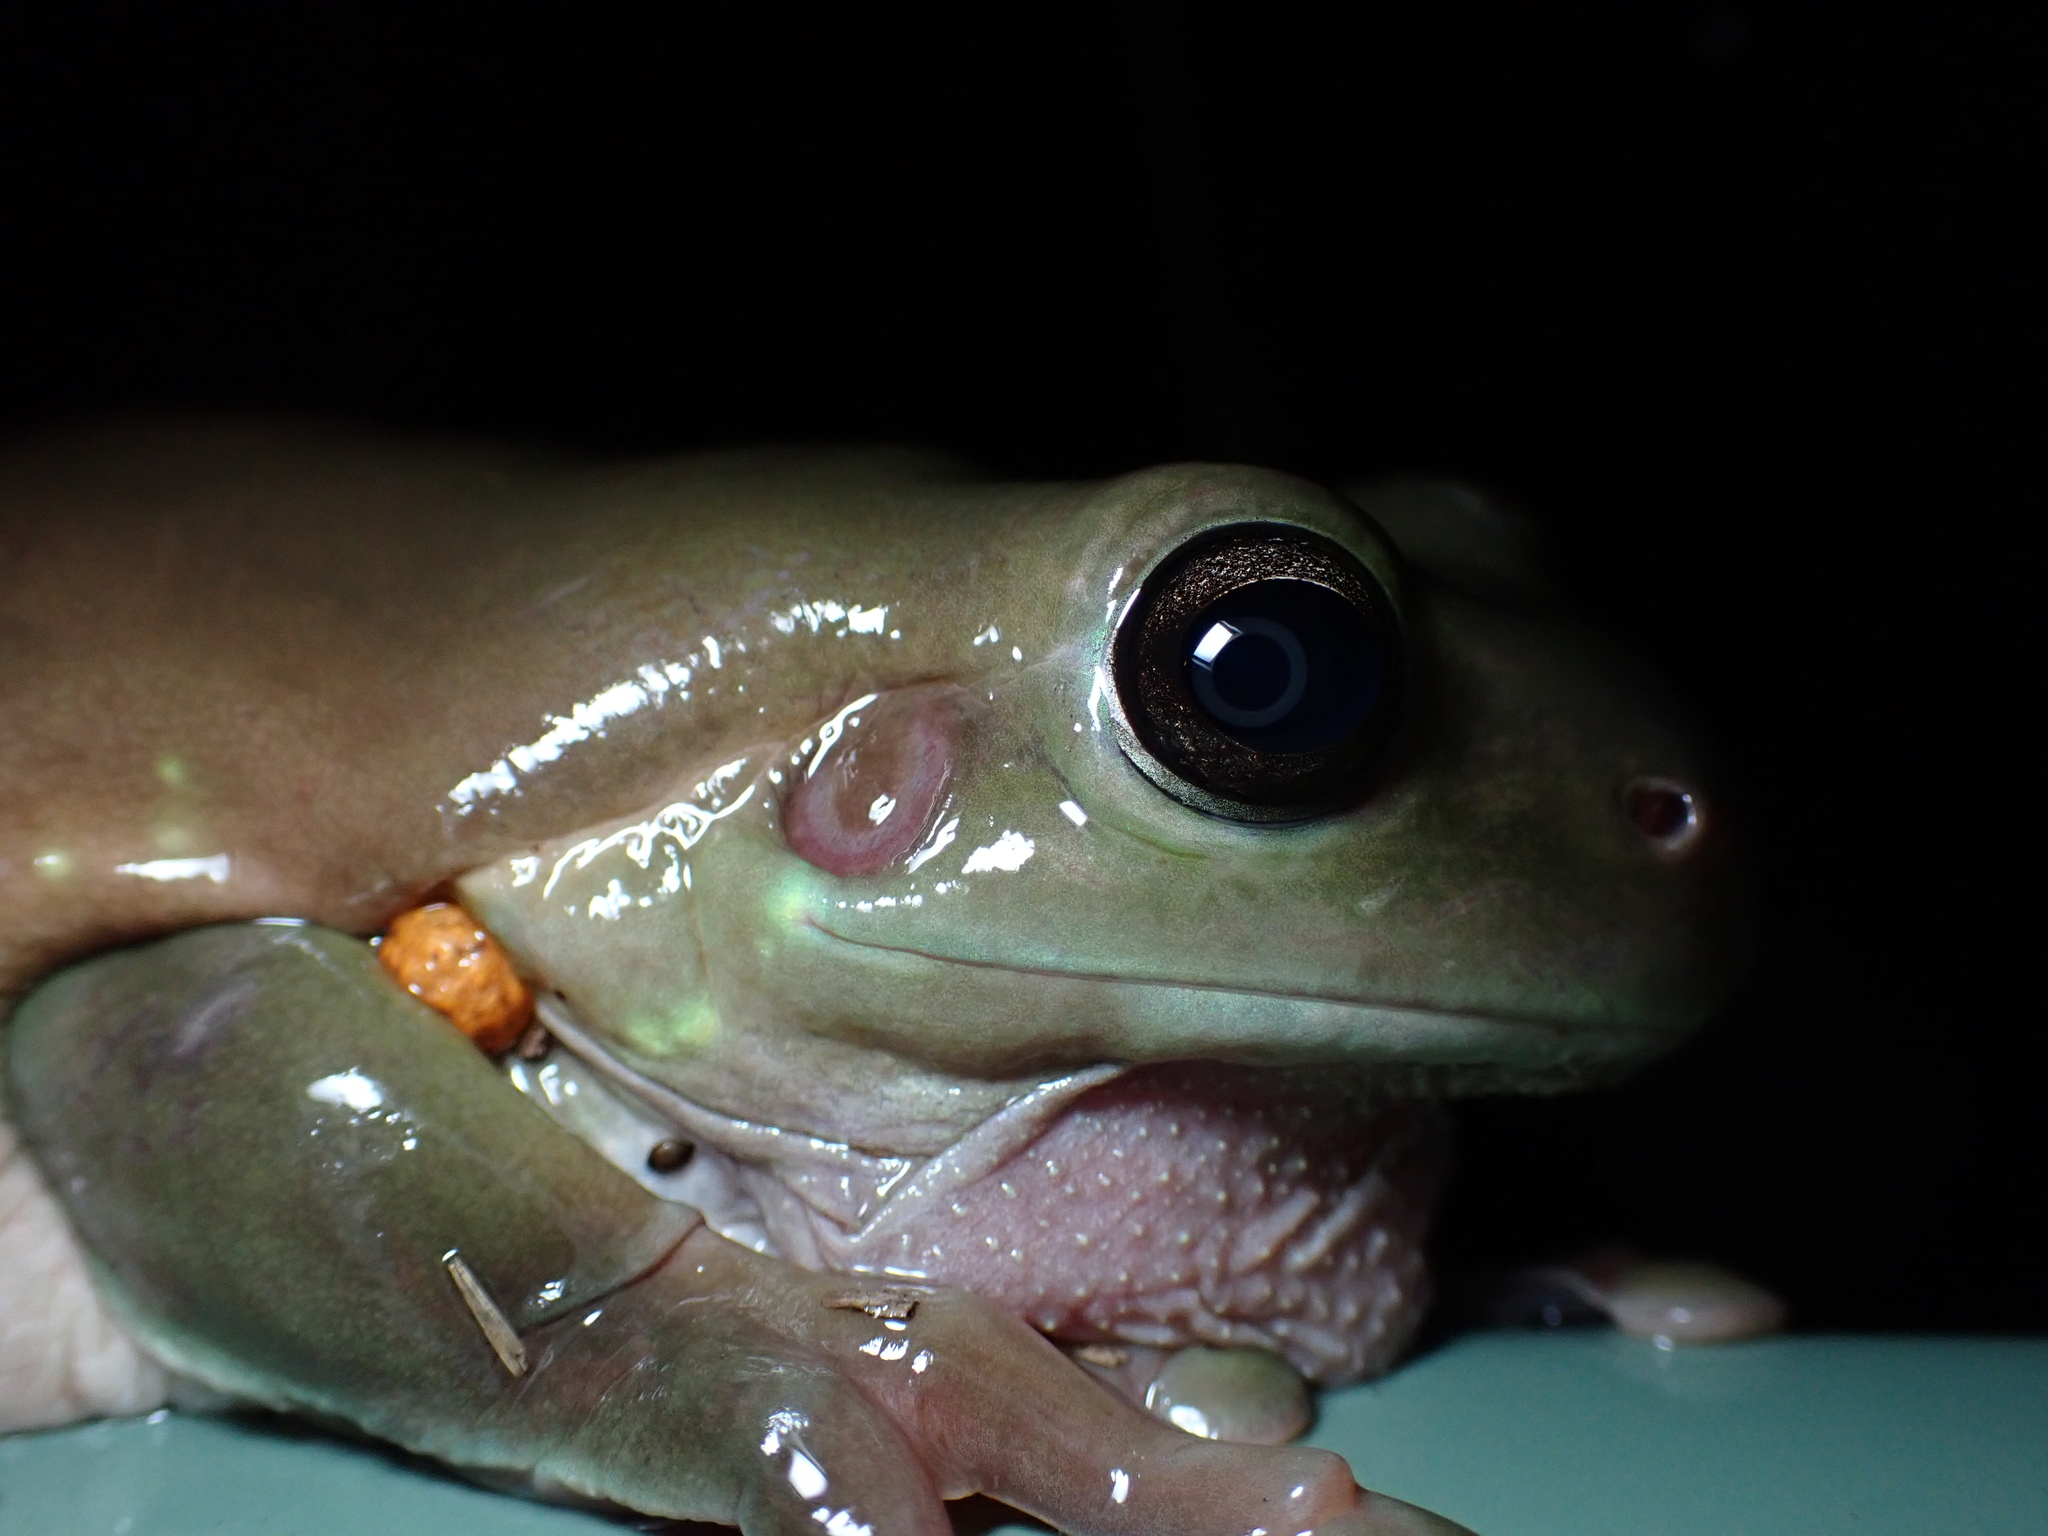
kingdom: Animalia
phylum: Chordata
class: Amphibia
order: Anura
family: Pelodryadidae
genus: Ranoidea
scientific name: Ranoidea caerulea
